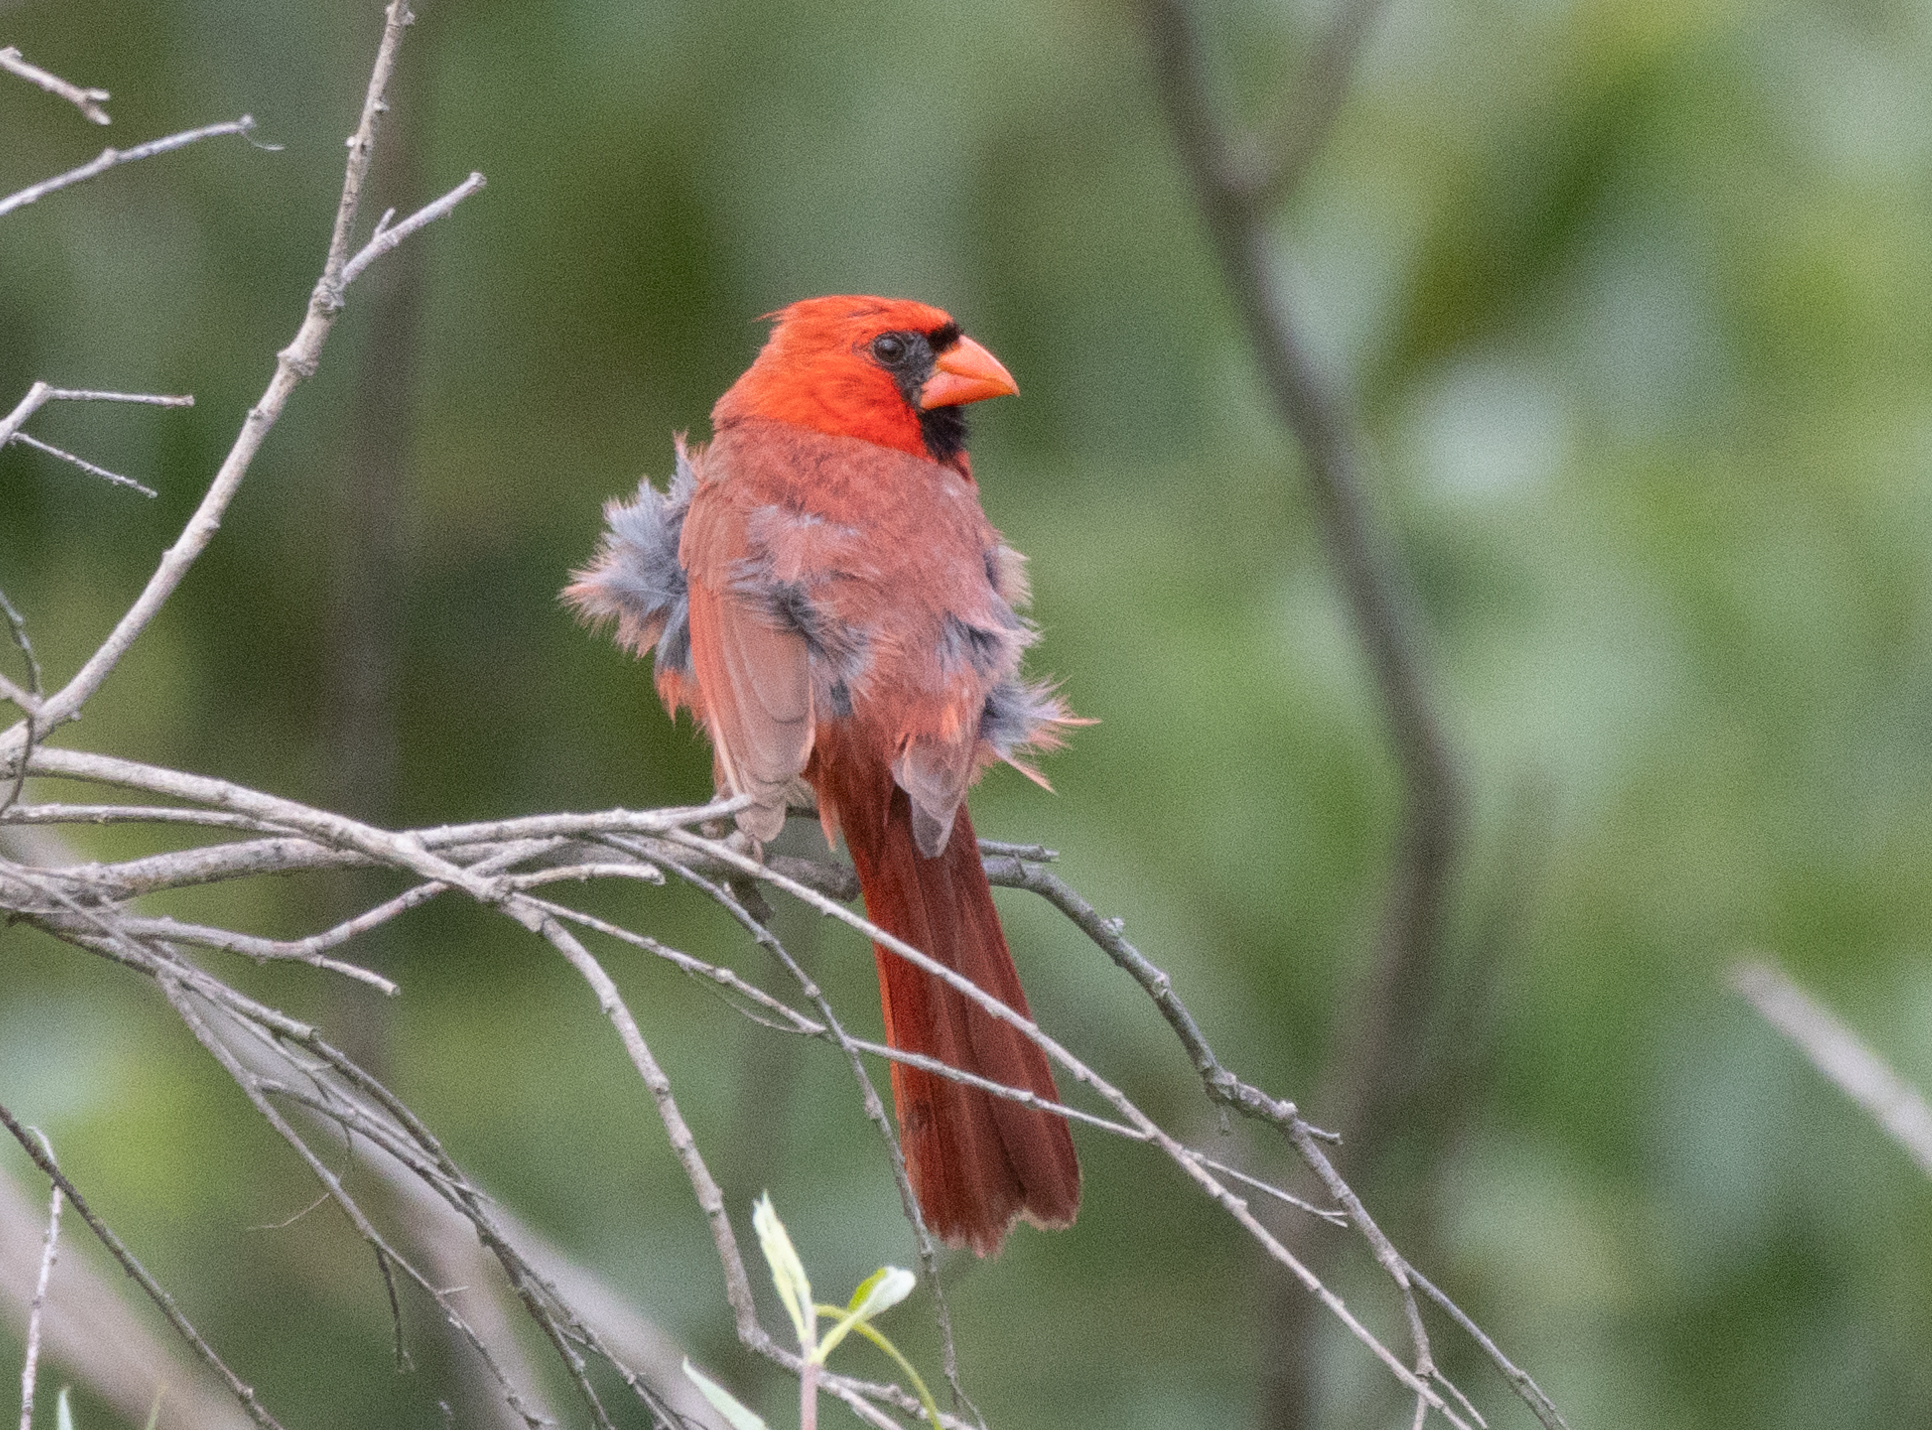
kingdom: Animalia
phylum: Chordata
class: Aves
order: Passeriformes
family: Cardinalidae
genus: Cardinalis
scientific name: Cardinalis cardinalis
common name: Northern cardinal
